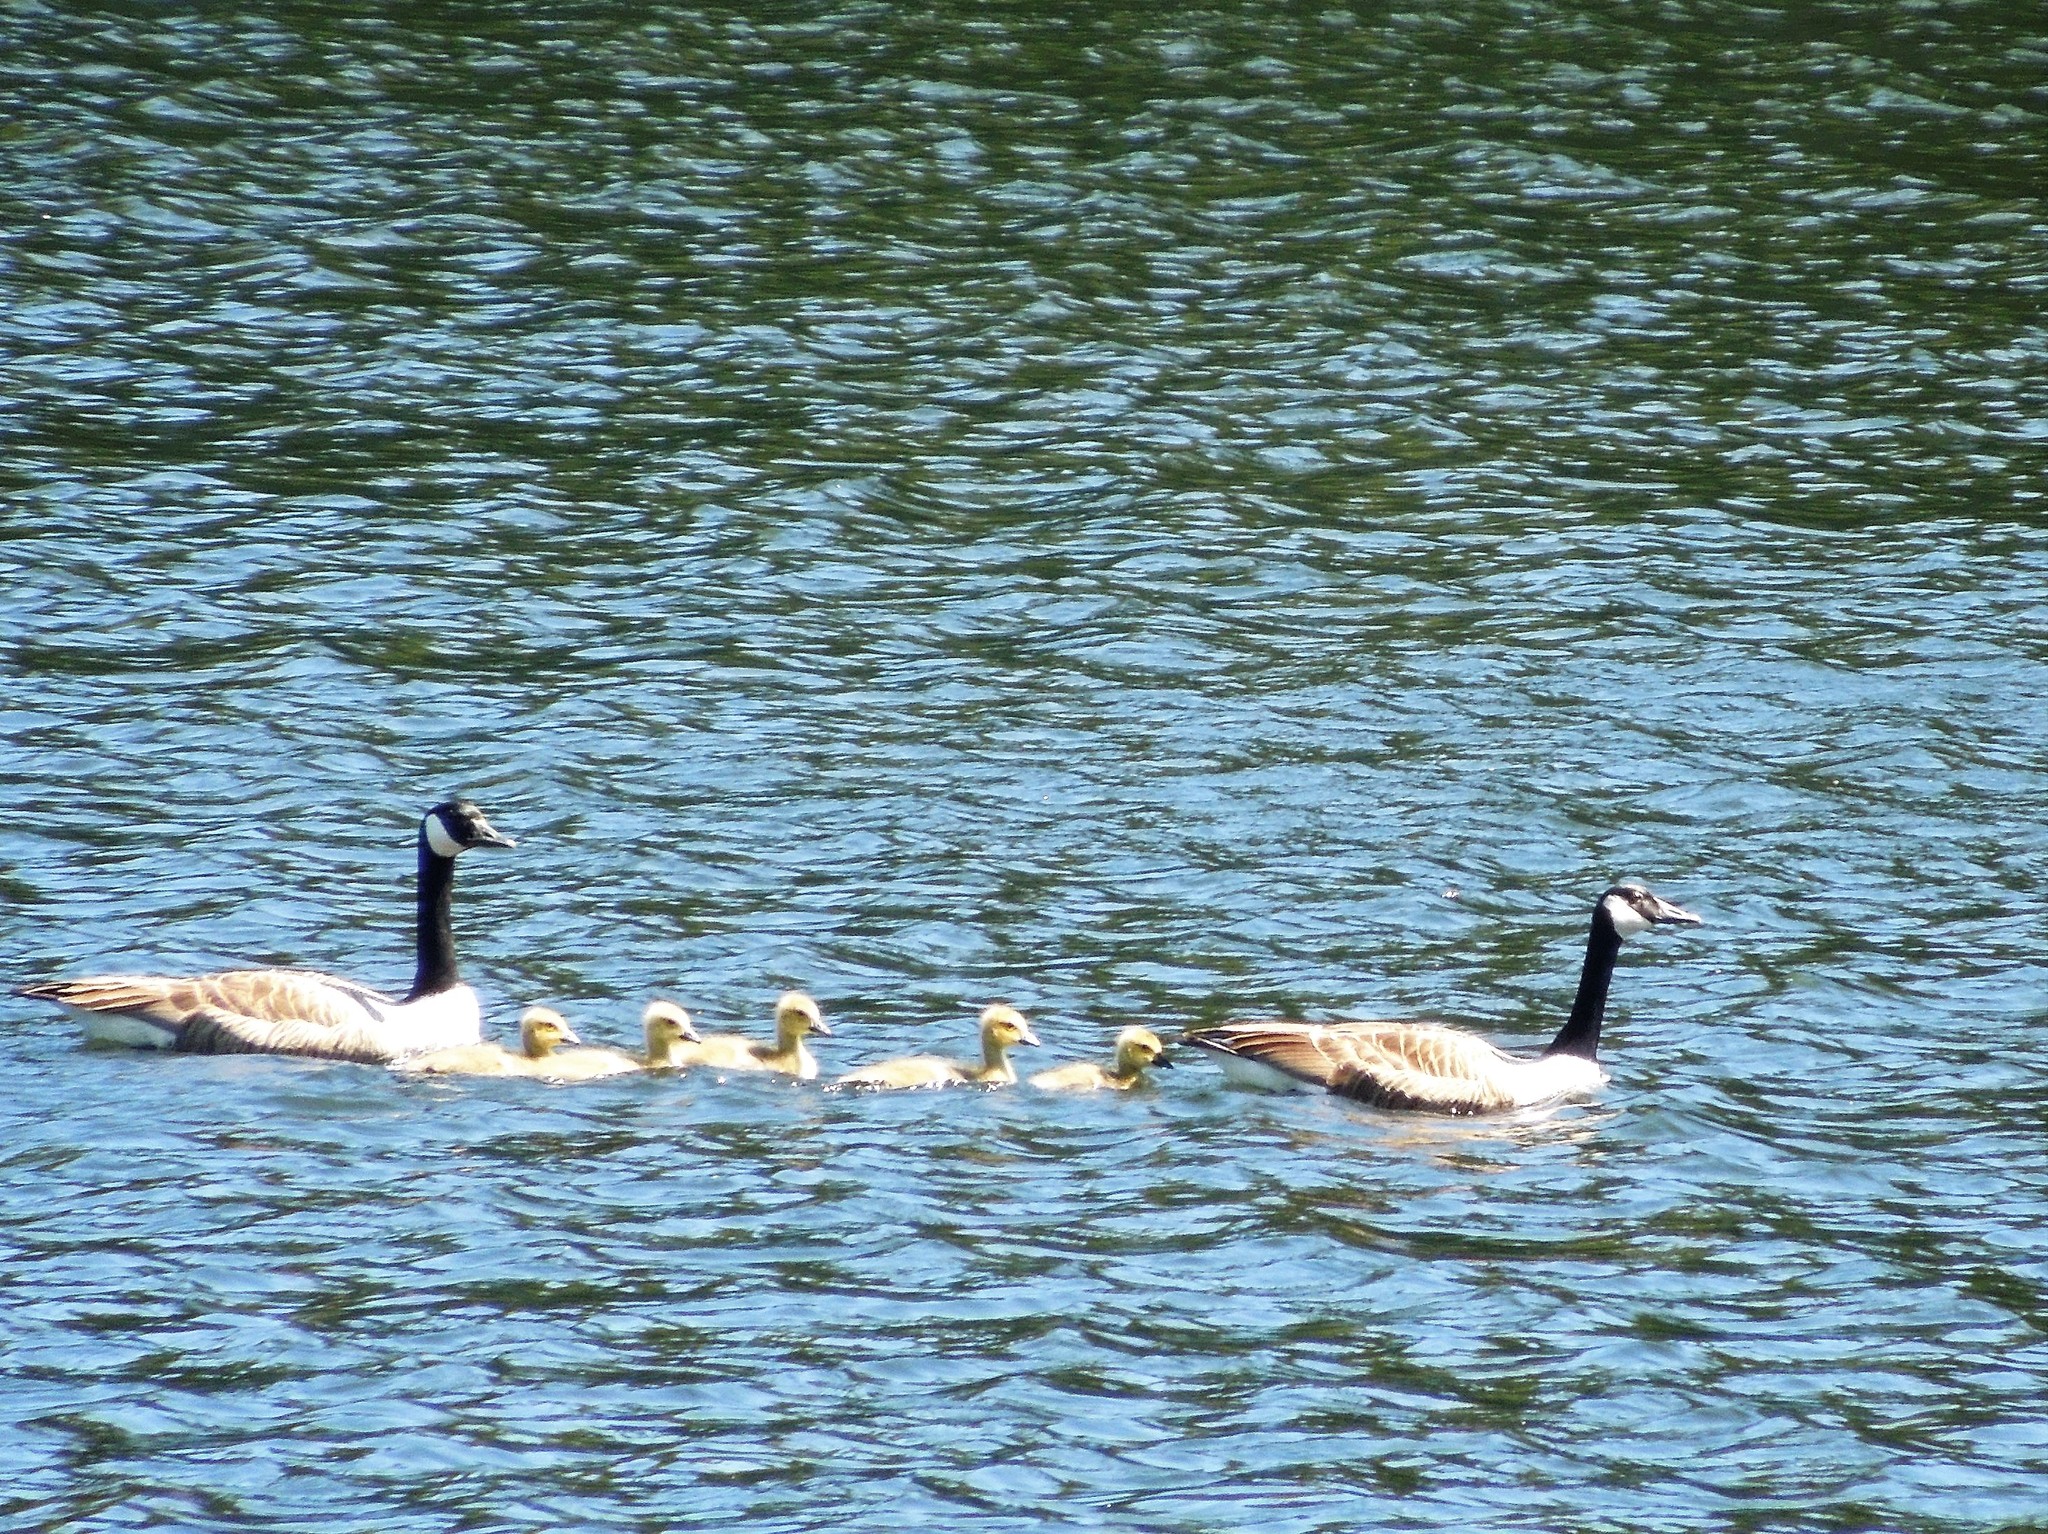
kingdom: Animalia
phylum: Chordata
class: Aves
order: Anseriformes
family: Anatidae
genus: Branta
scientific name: Branta canadensis
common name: Canada goose
